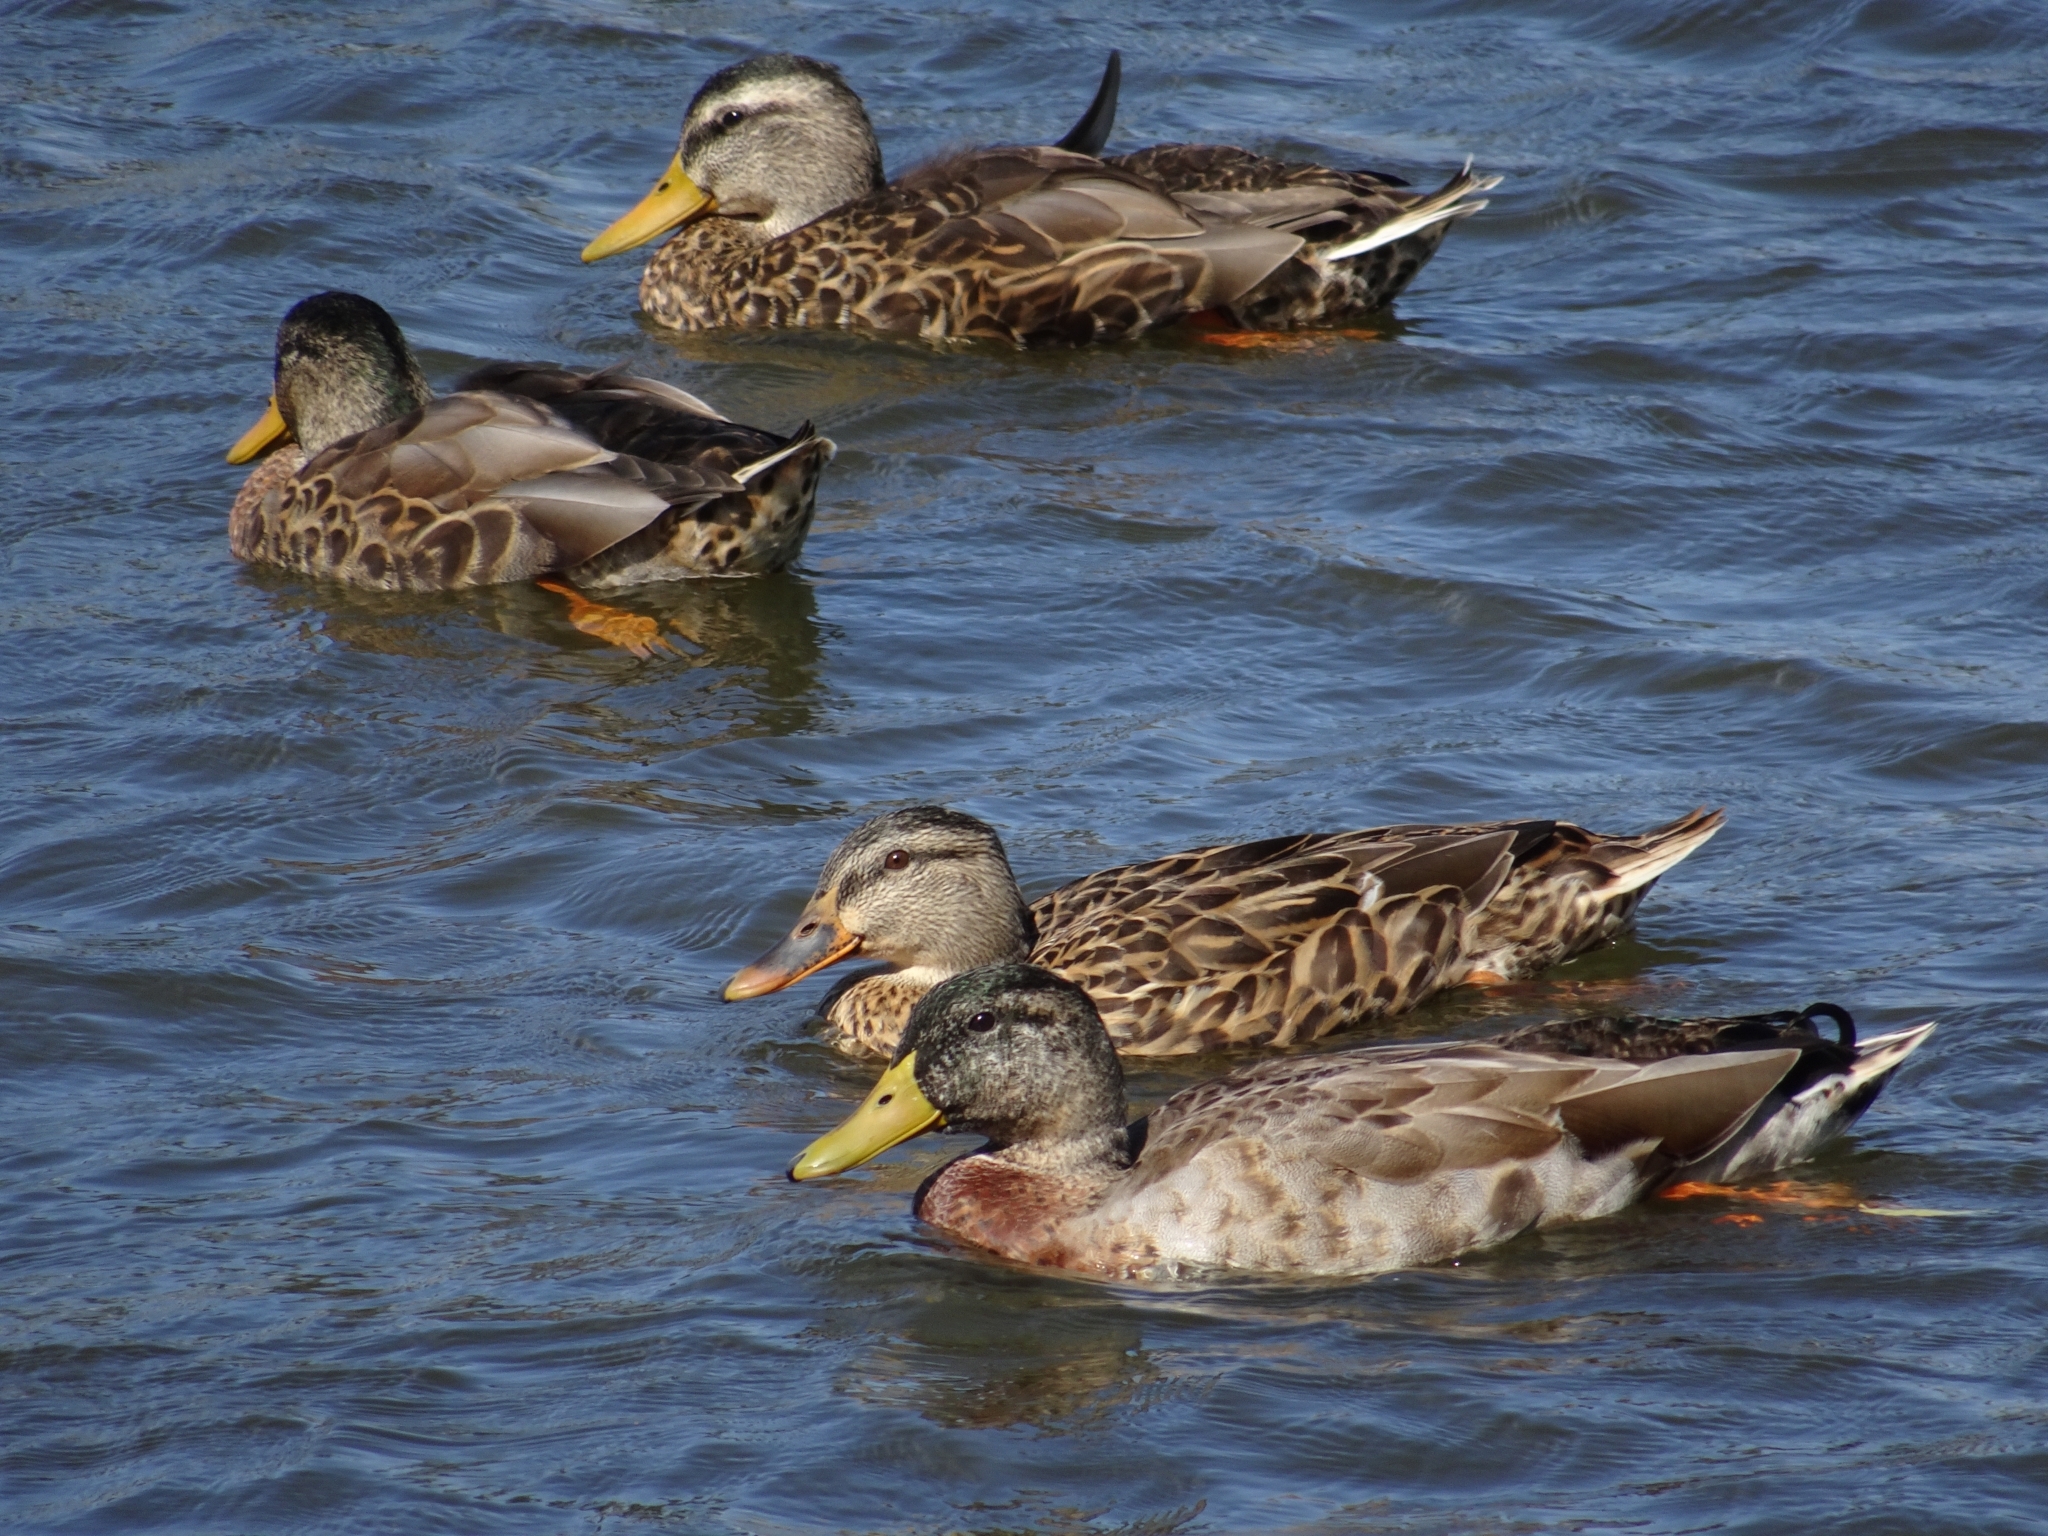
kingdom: Animalia
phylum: Chordata
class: Aves
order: Anseriformes
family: Anatidae
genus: Anas
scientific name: Anas platyrhynchos
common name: Mallard
